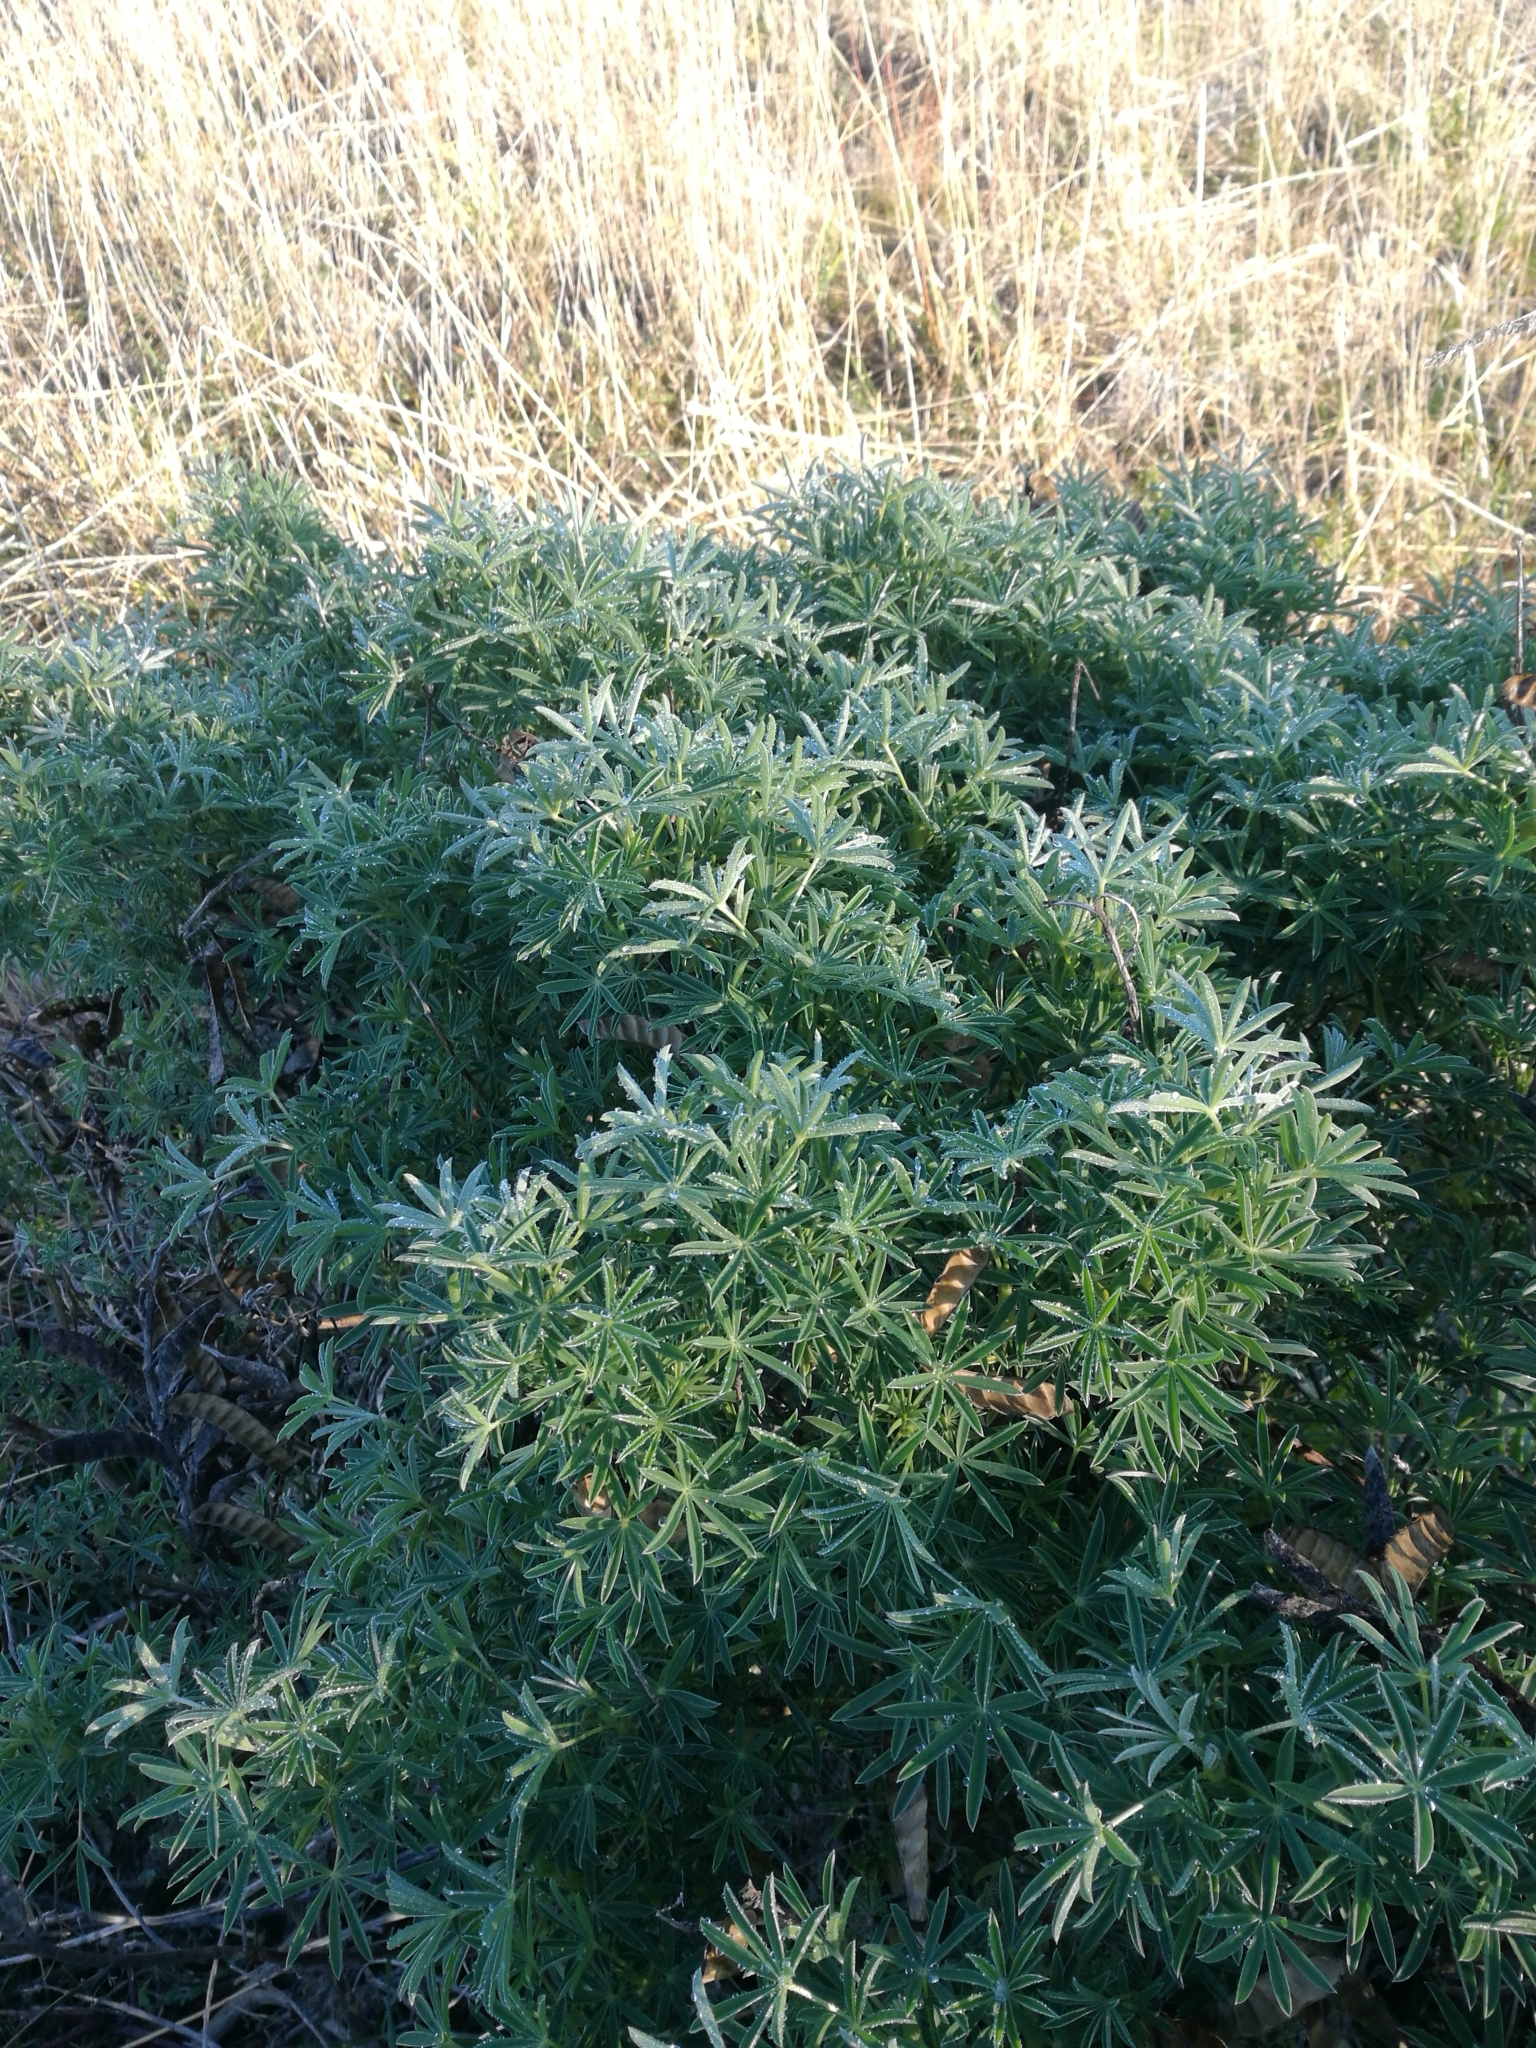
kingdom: Plantae
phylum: Tracheophyta
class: Magnoliopsida
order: Fabales
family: Fabaceae
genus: Lupinus
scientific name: Lupinus arboreus
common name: Yellow bush lupine
